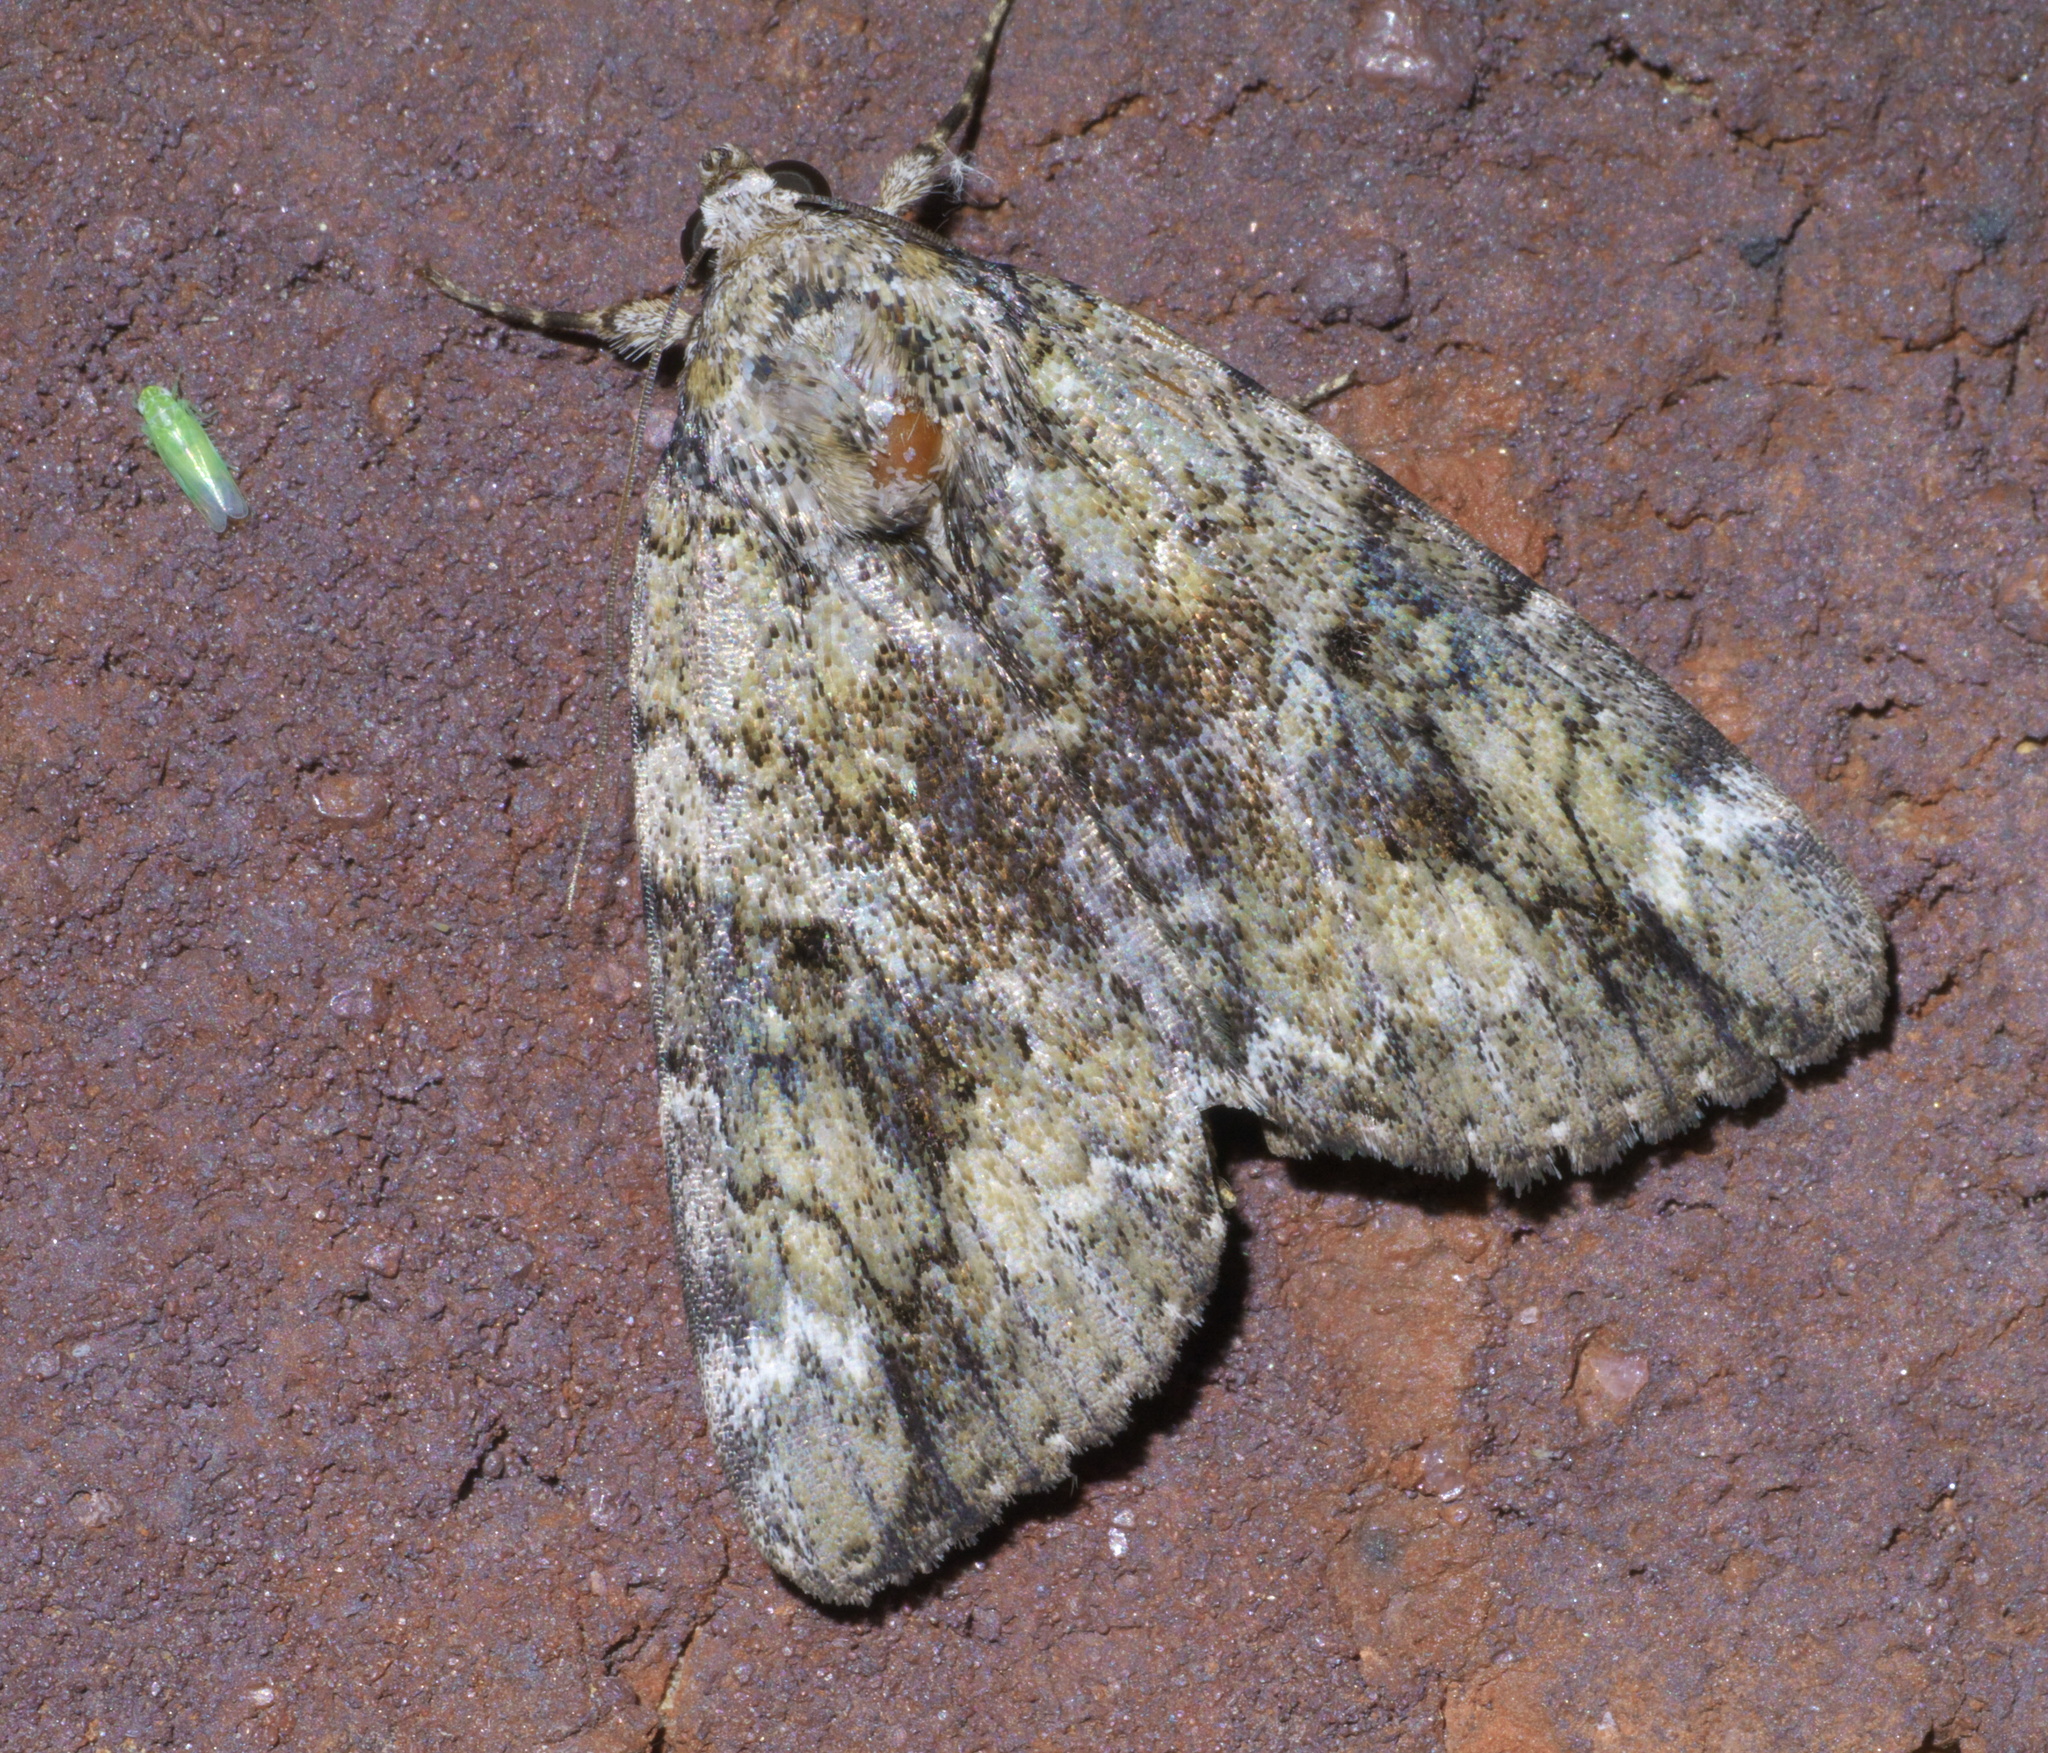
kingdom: Animalia
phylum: Arthropoda
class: Insecta
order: Lepidoptera
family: Erebidae
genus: Catocala
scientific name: Catocala micronympha
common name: Little nymph underwing
